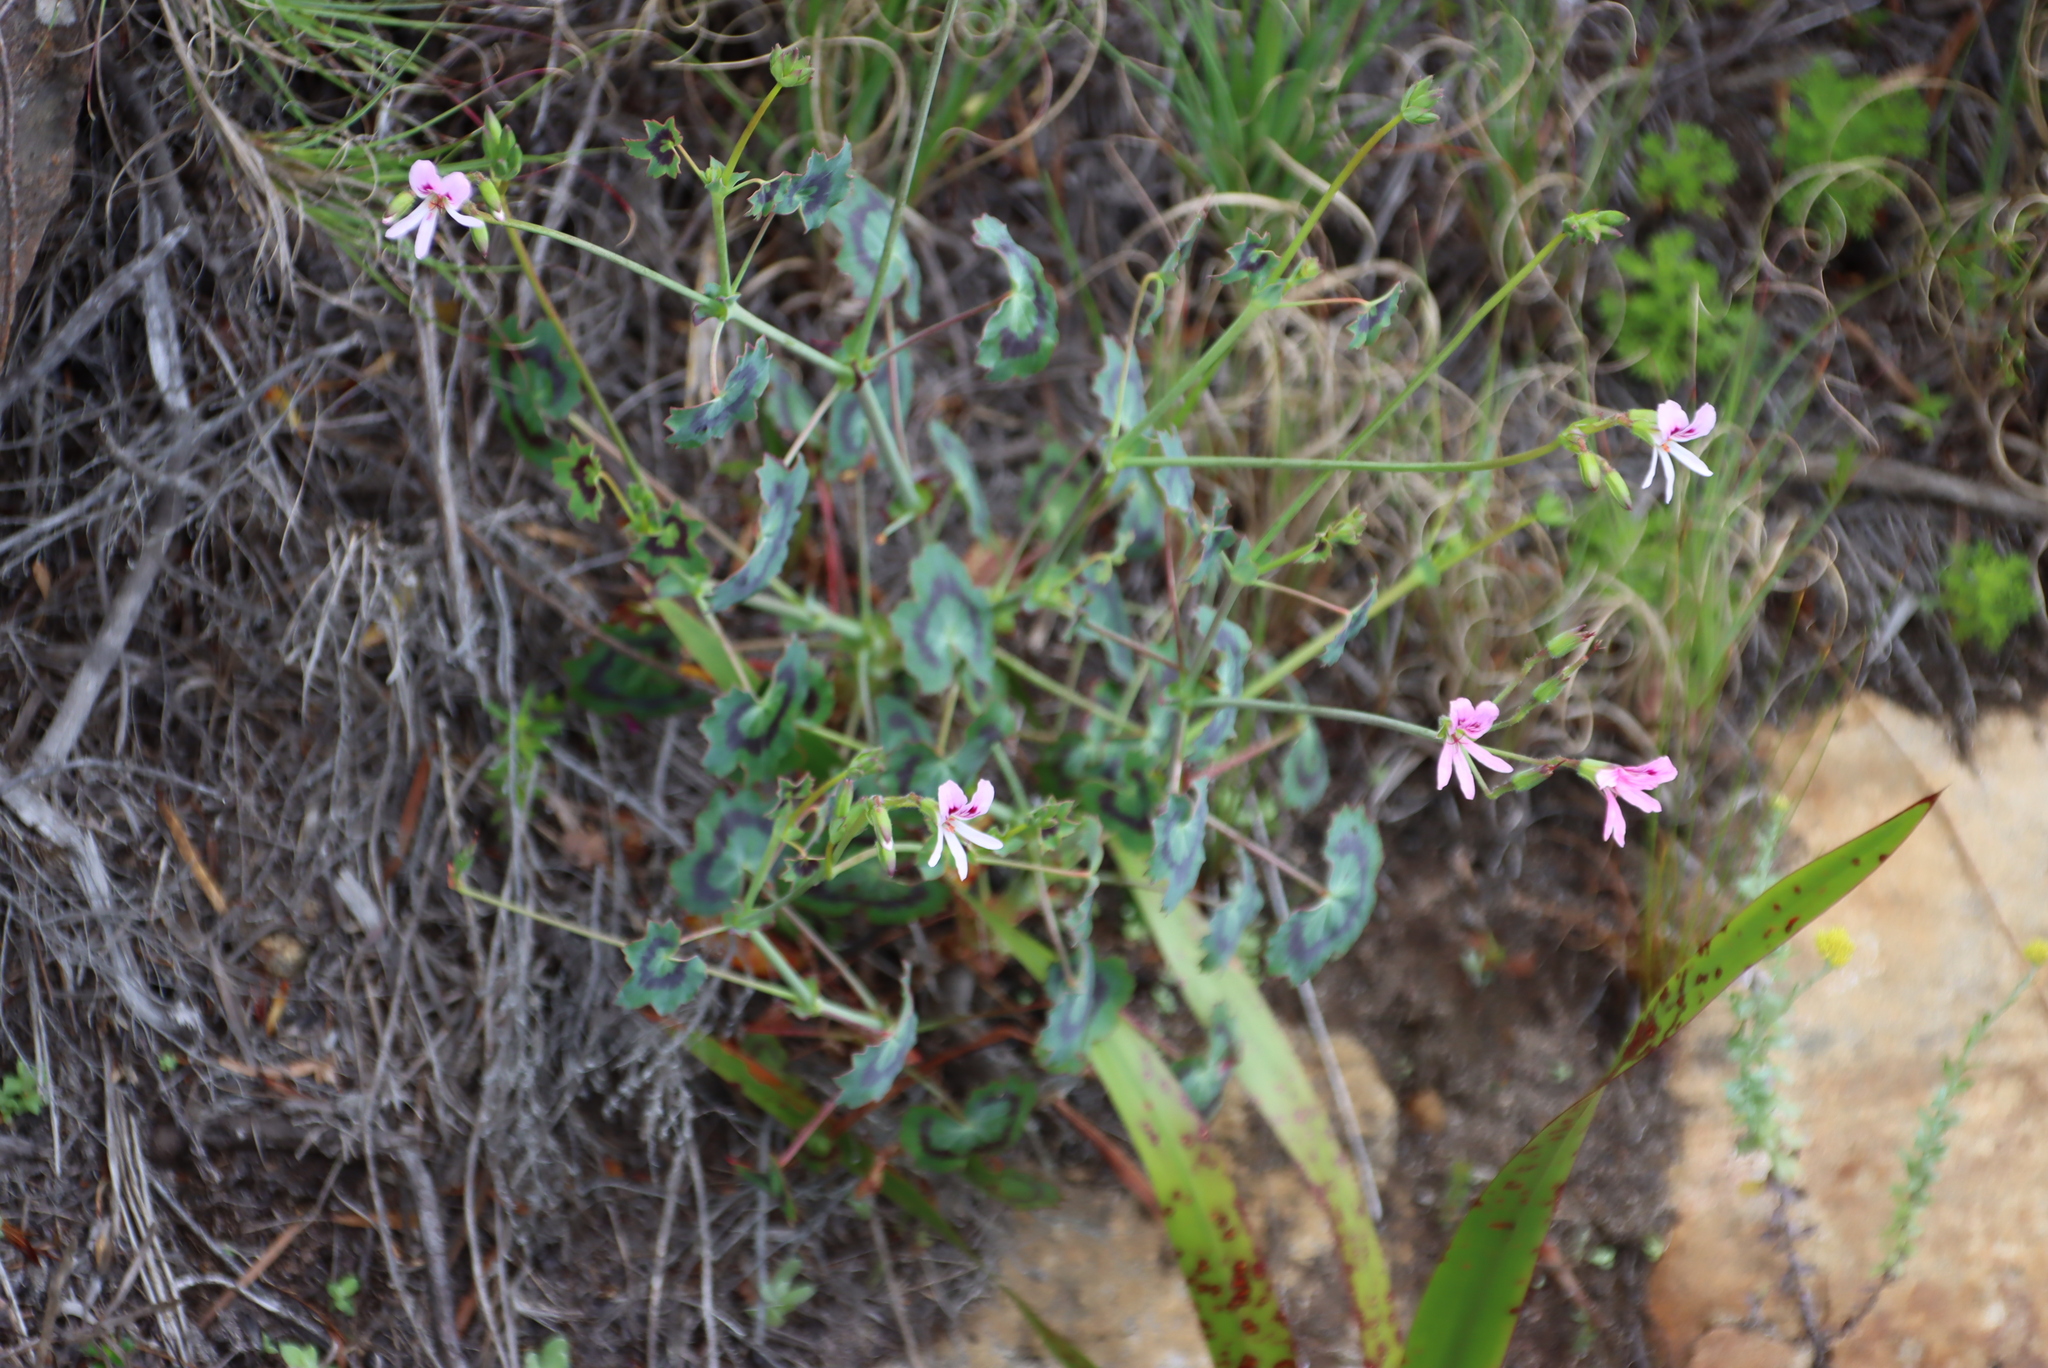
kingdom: Plantae
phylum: Tracheophyta
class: Magnoliopsida
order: Geraniales
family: Geraniaceae
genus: Pelargonium
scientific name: Pelargonium tabulare
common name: Table mountain pelargonium
